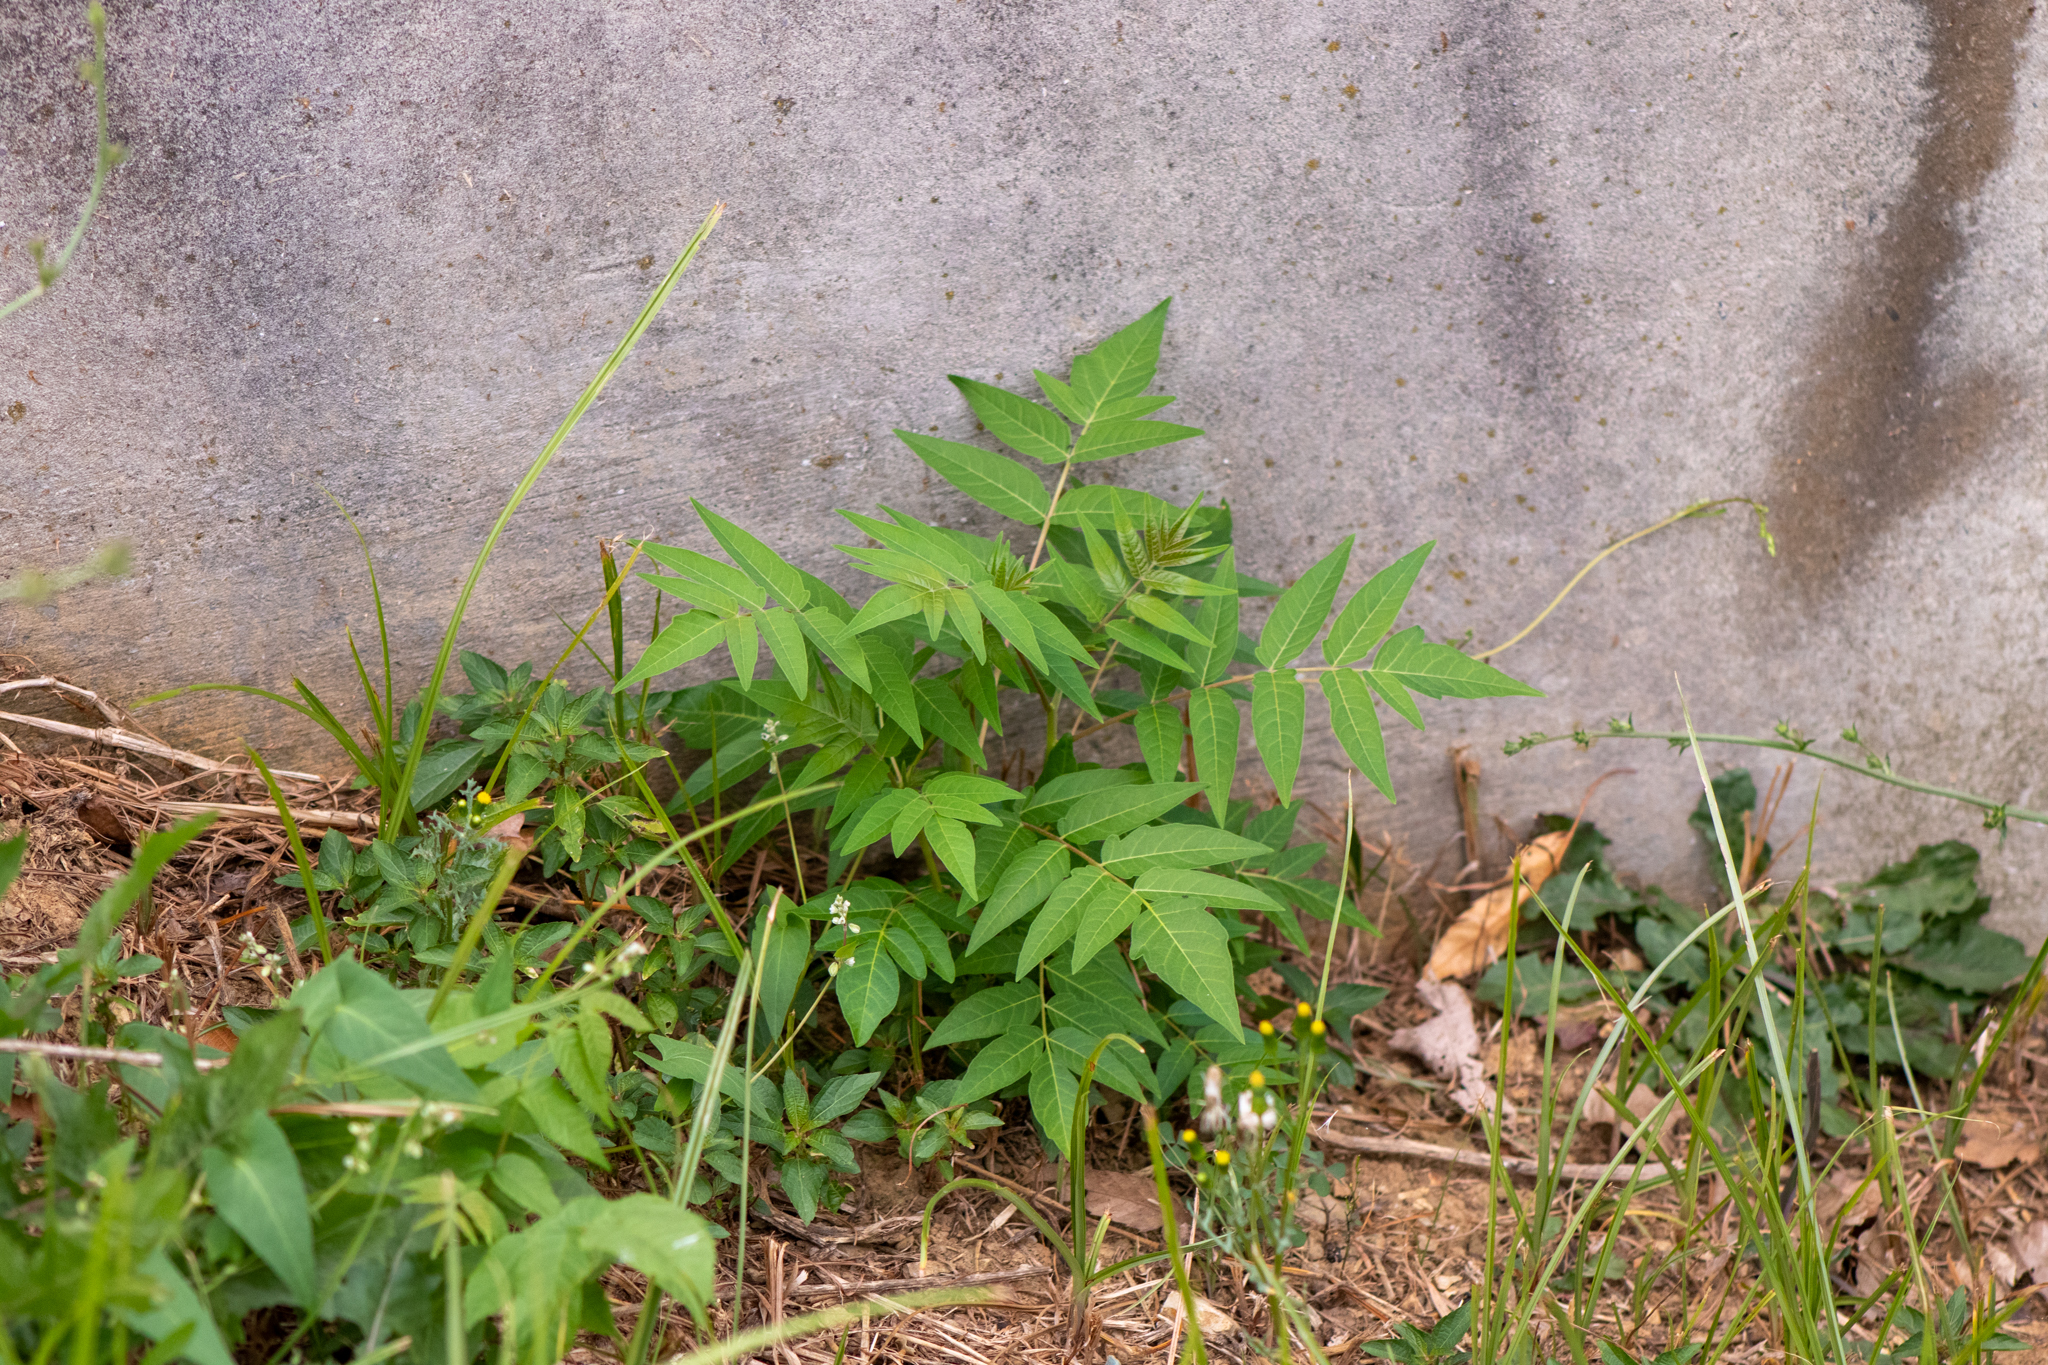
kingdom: Plantae
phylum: Tracheophyta
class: Magnoliopsida
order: Sapindales
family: Simaroubaceae
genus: Ailanthus
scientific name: Ailanthus altissima
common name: Tree-of-heaven
